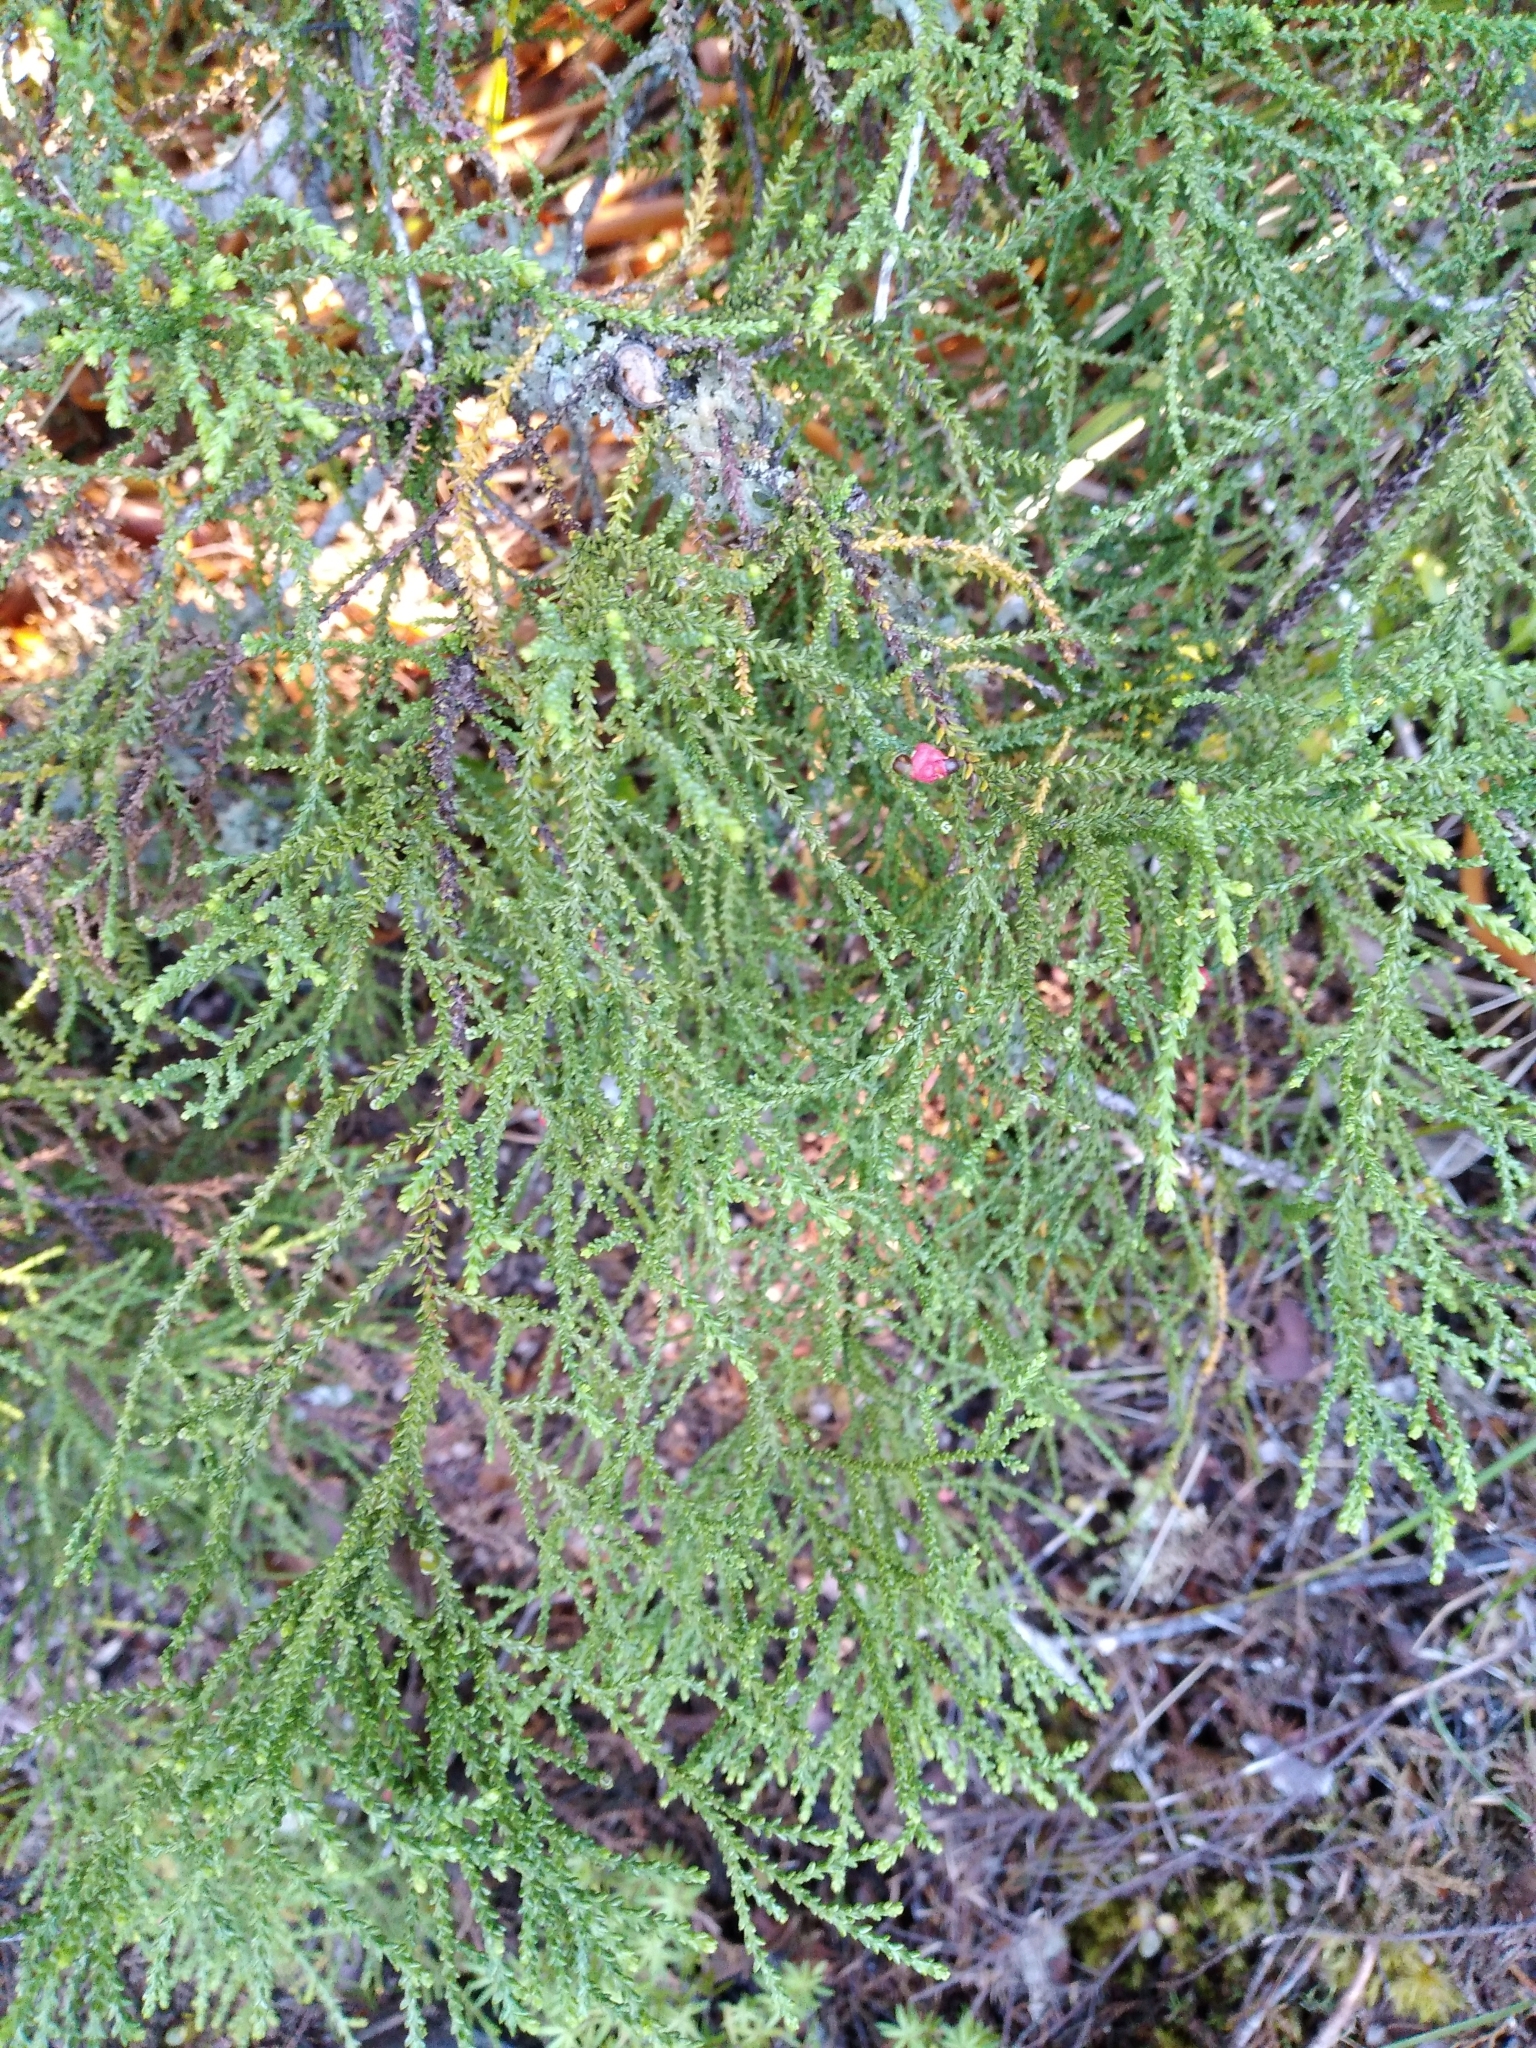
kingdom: Plantae
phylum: Tracheophyta
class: Pinopsida
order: Pinales
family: Podocarpaceae
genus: Lepidothamnus
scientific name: Lepidothamnus intermedius
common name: Yellow silver pine
